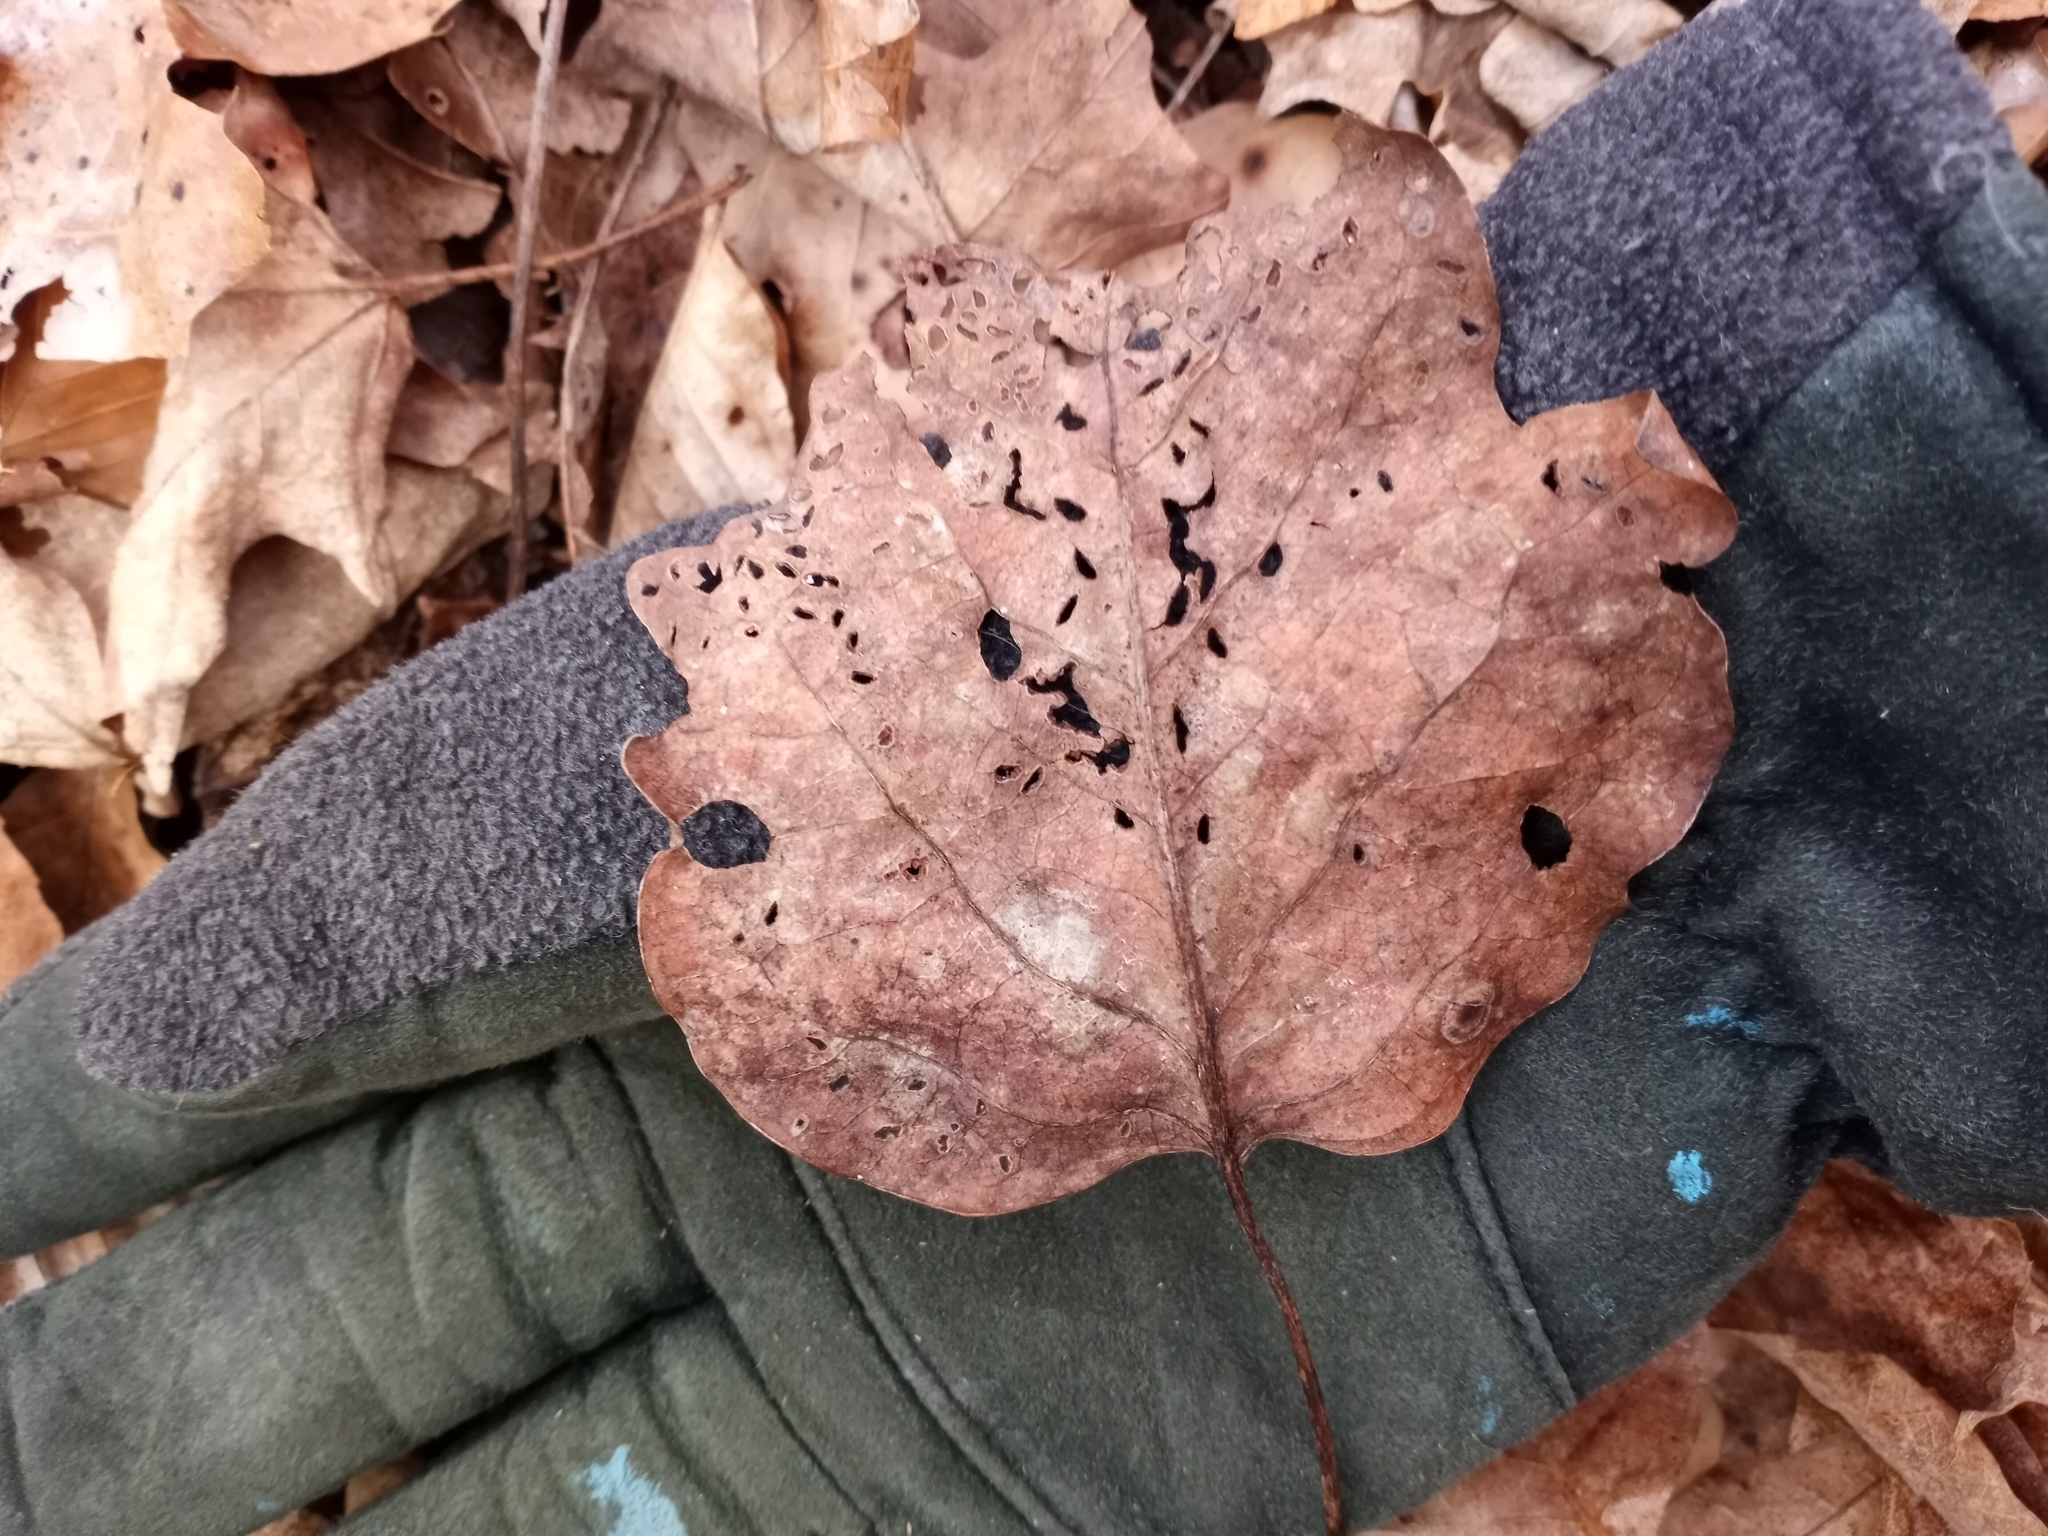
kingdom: Plantae
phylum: Tracheophyta
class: Magnoliopsida
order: Magnoliales
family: Magnoliaceae
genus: Liriodendron
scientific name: Liriodendron tulipifera
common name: Tulip tree
